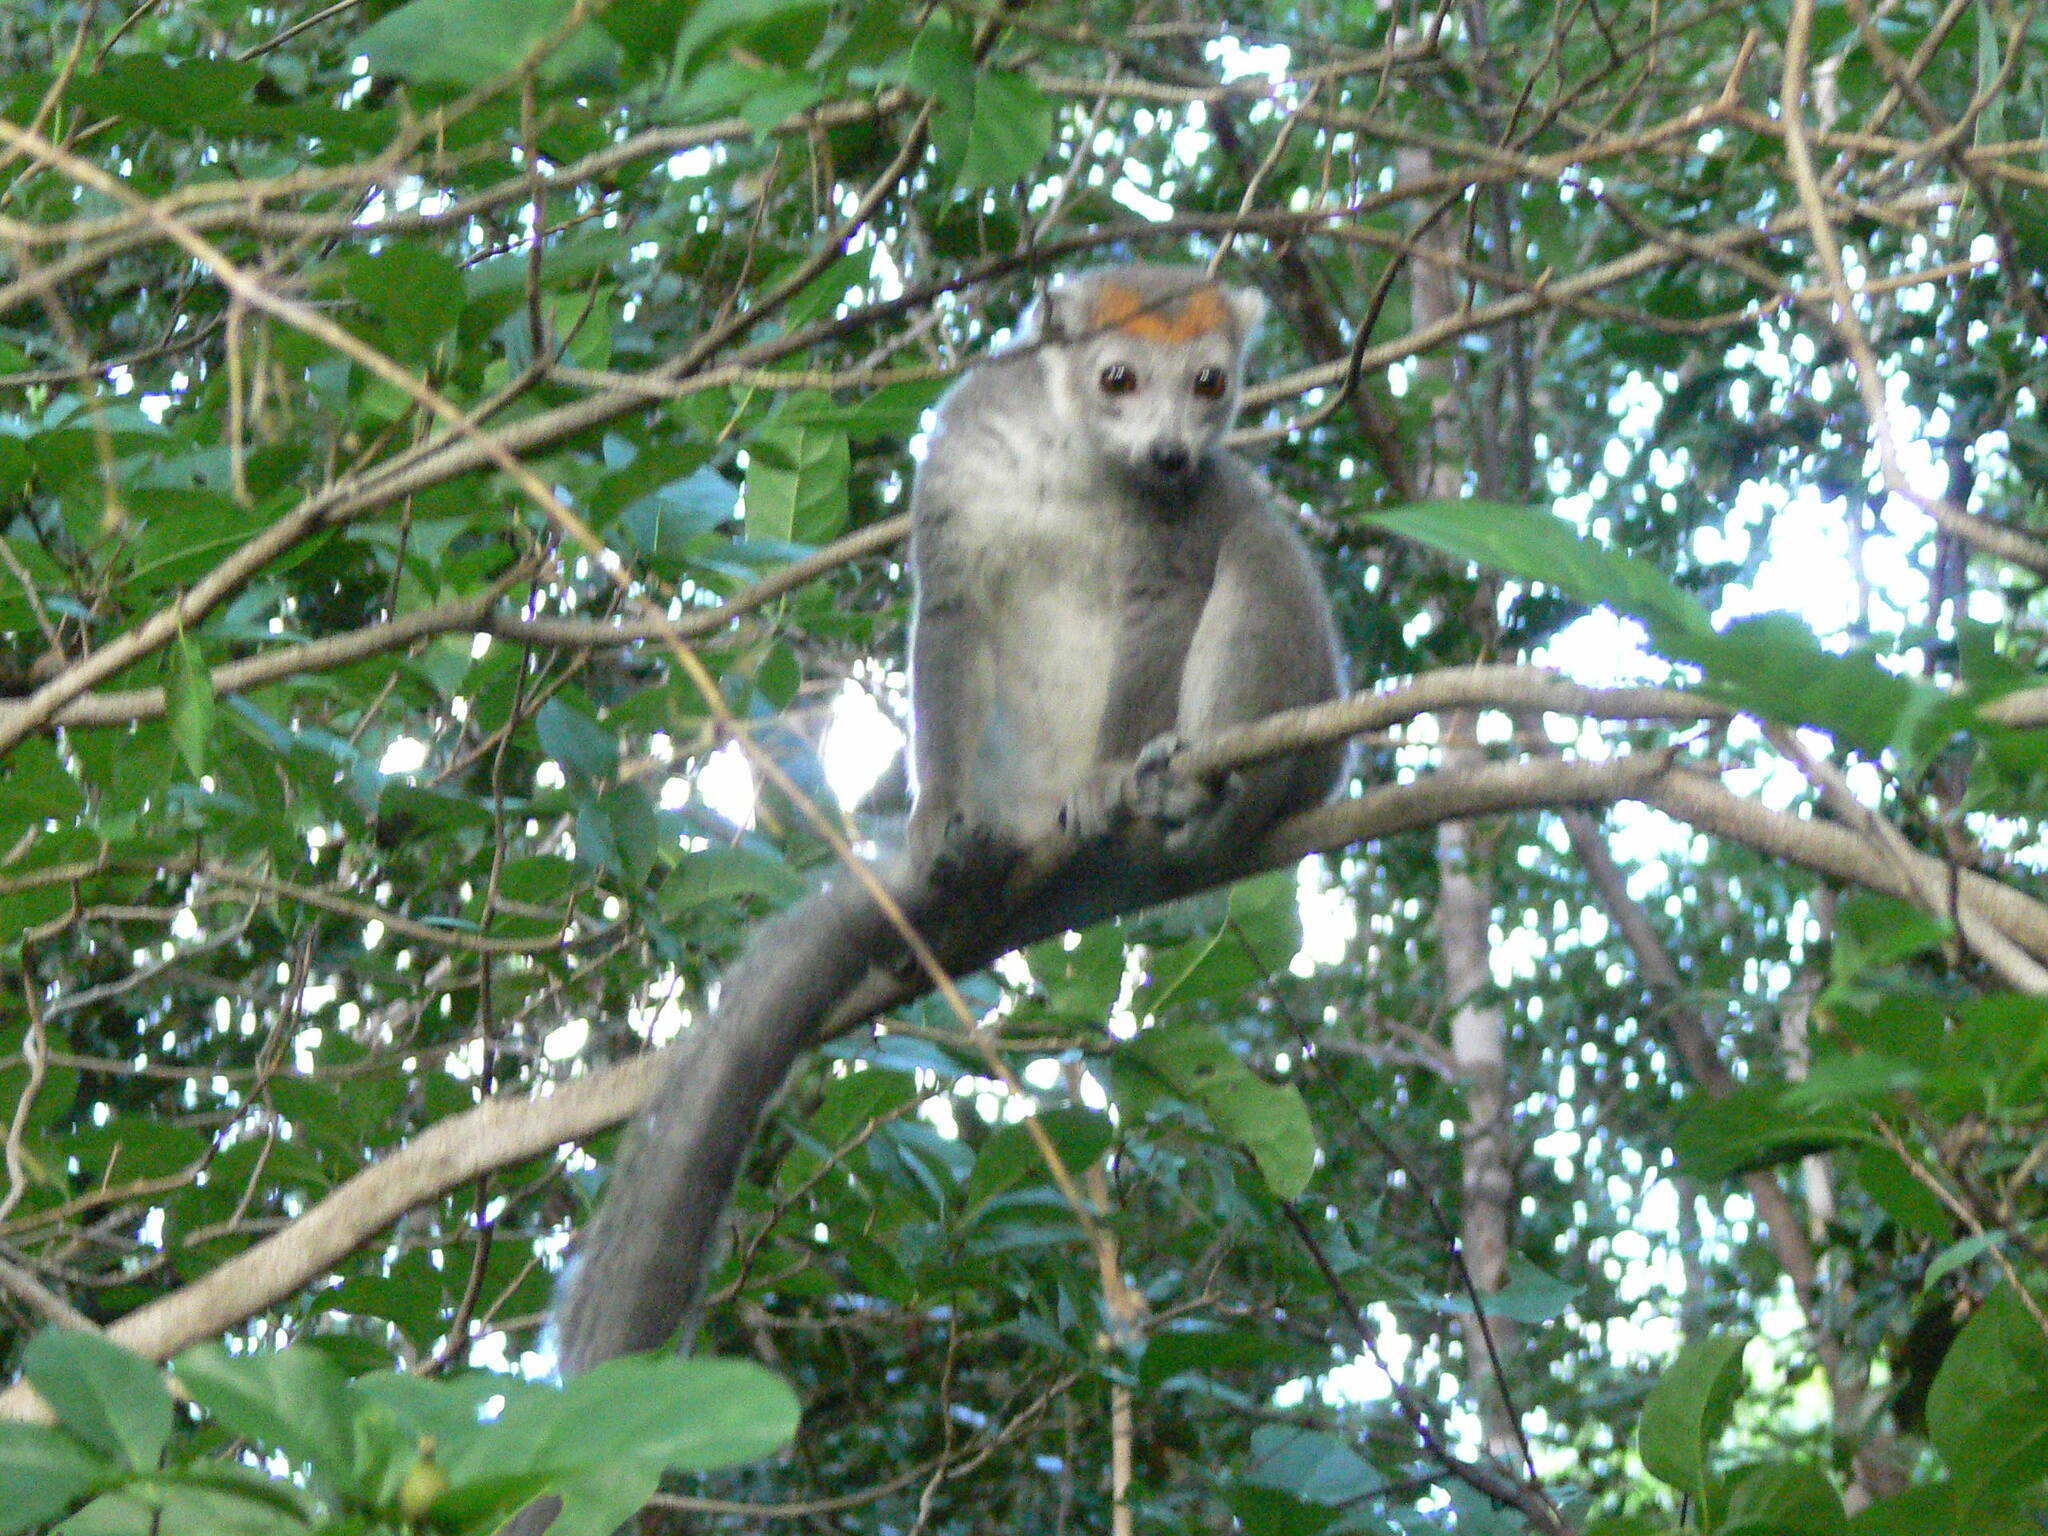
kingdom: Animalia
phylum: Chordata
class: Mammalia
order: Primates
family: Lemuridae
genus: Eulemur
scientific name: Eulemur coronatus
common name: Crowned lemur
